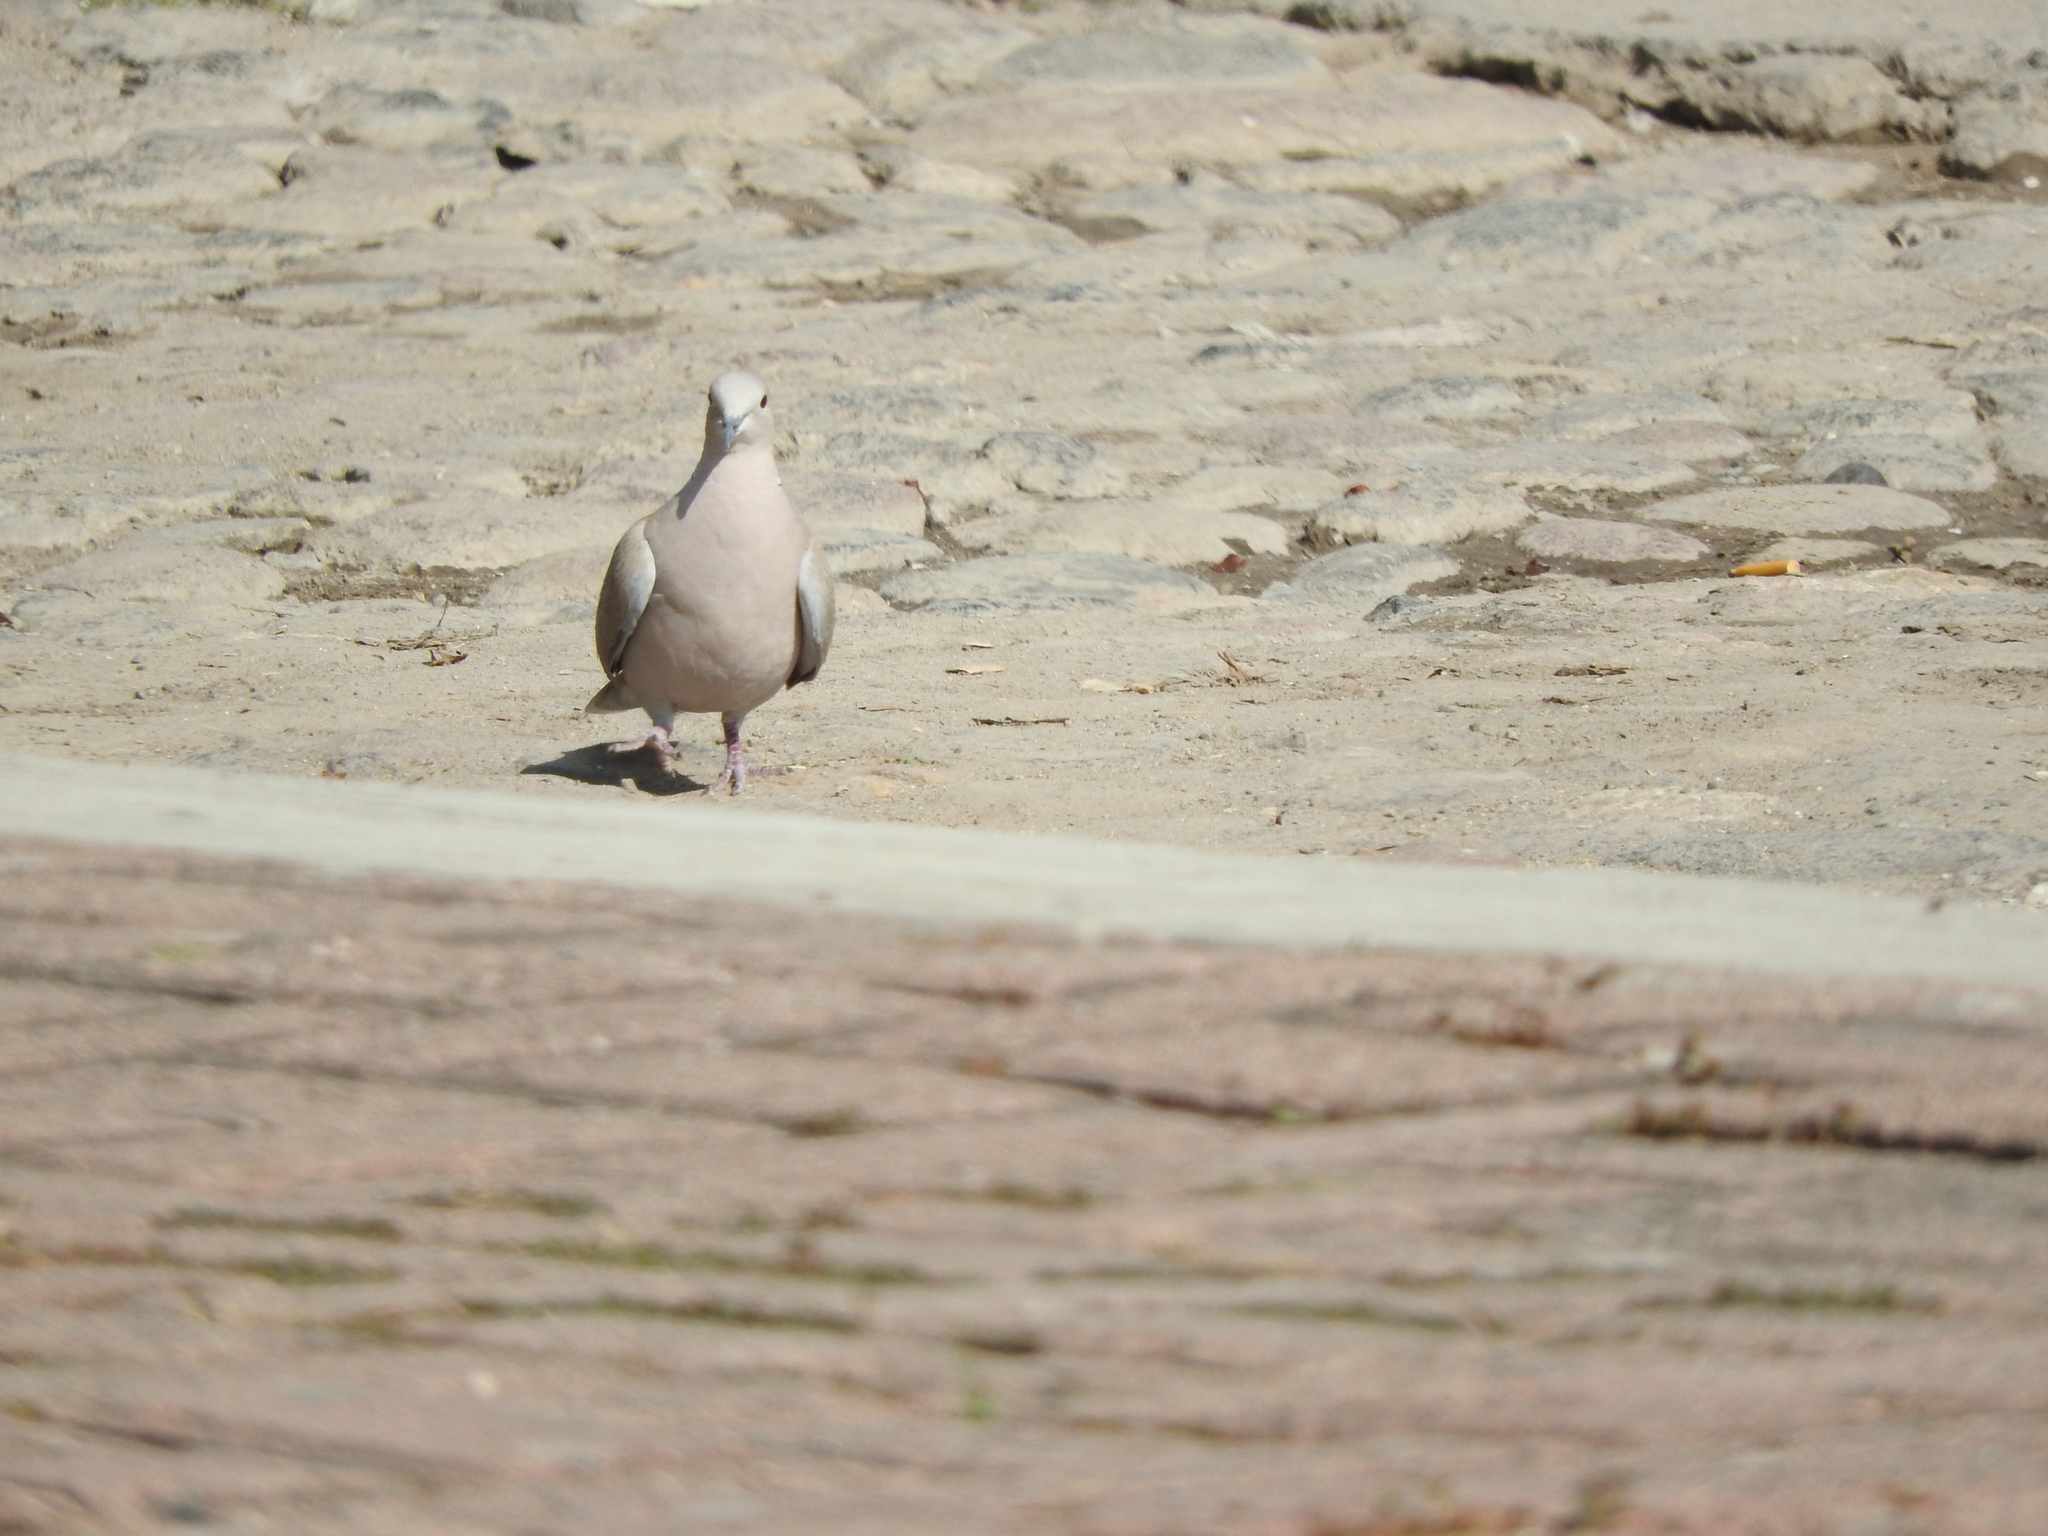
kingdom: Animalia
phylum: Chordata
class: Aves
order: Columbiformes
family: Columbidae
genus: Streptopelia
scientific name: Streptopelia decaocto
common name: Eurasian collared dove
